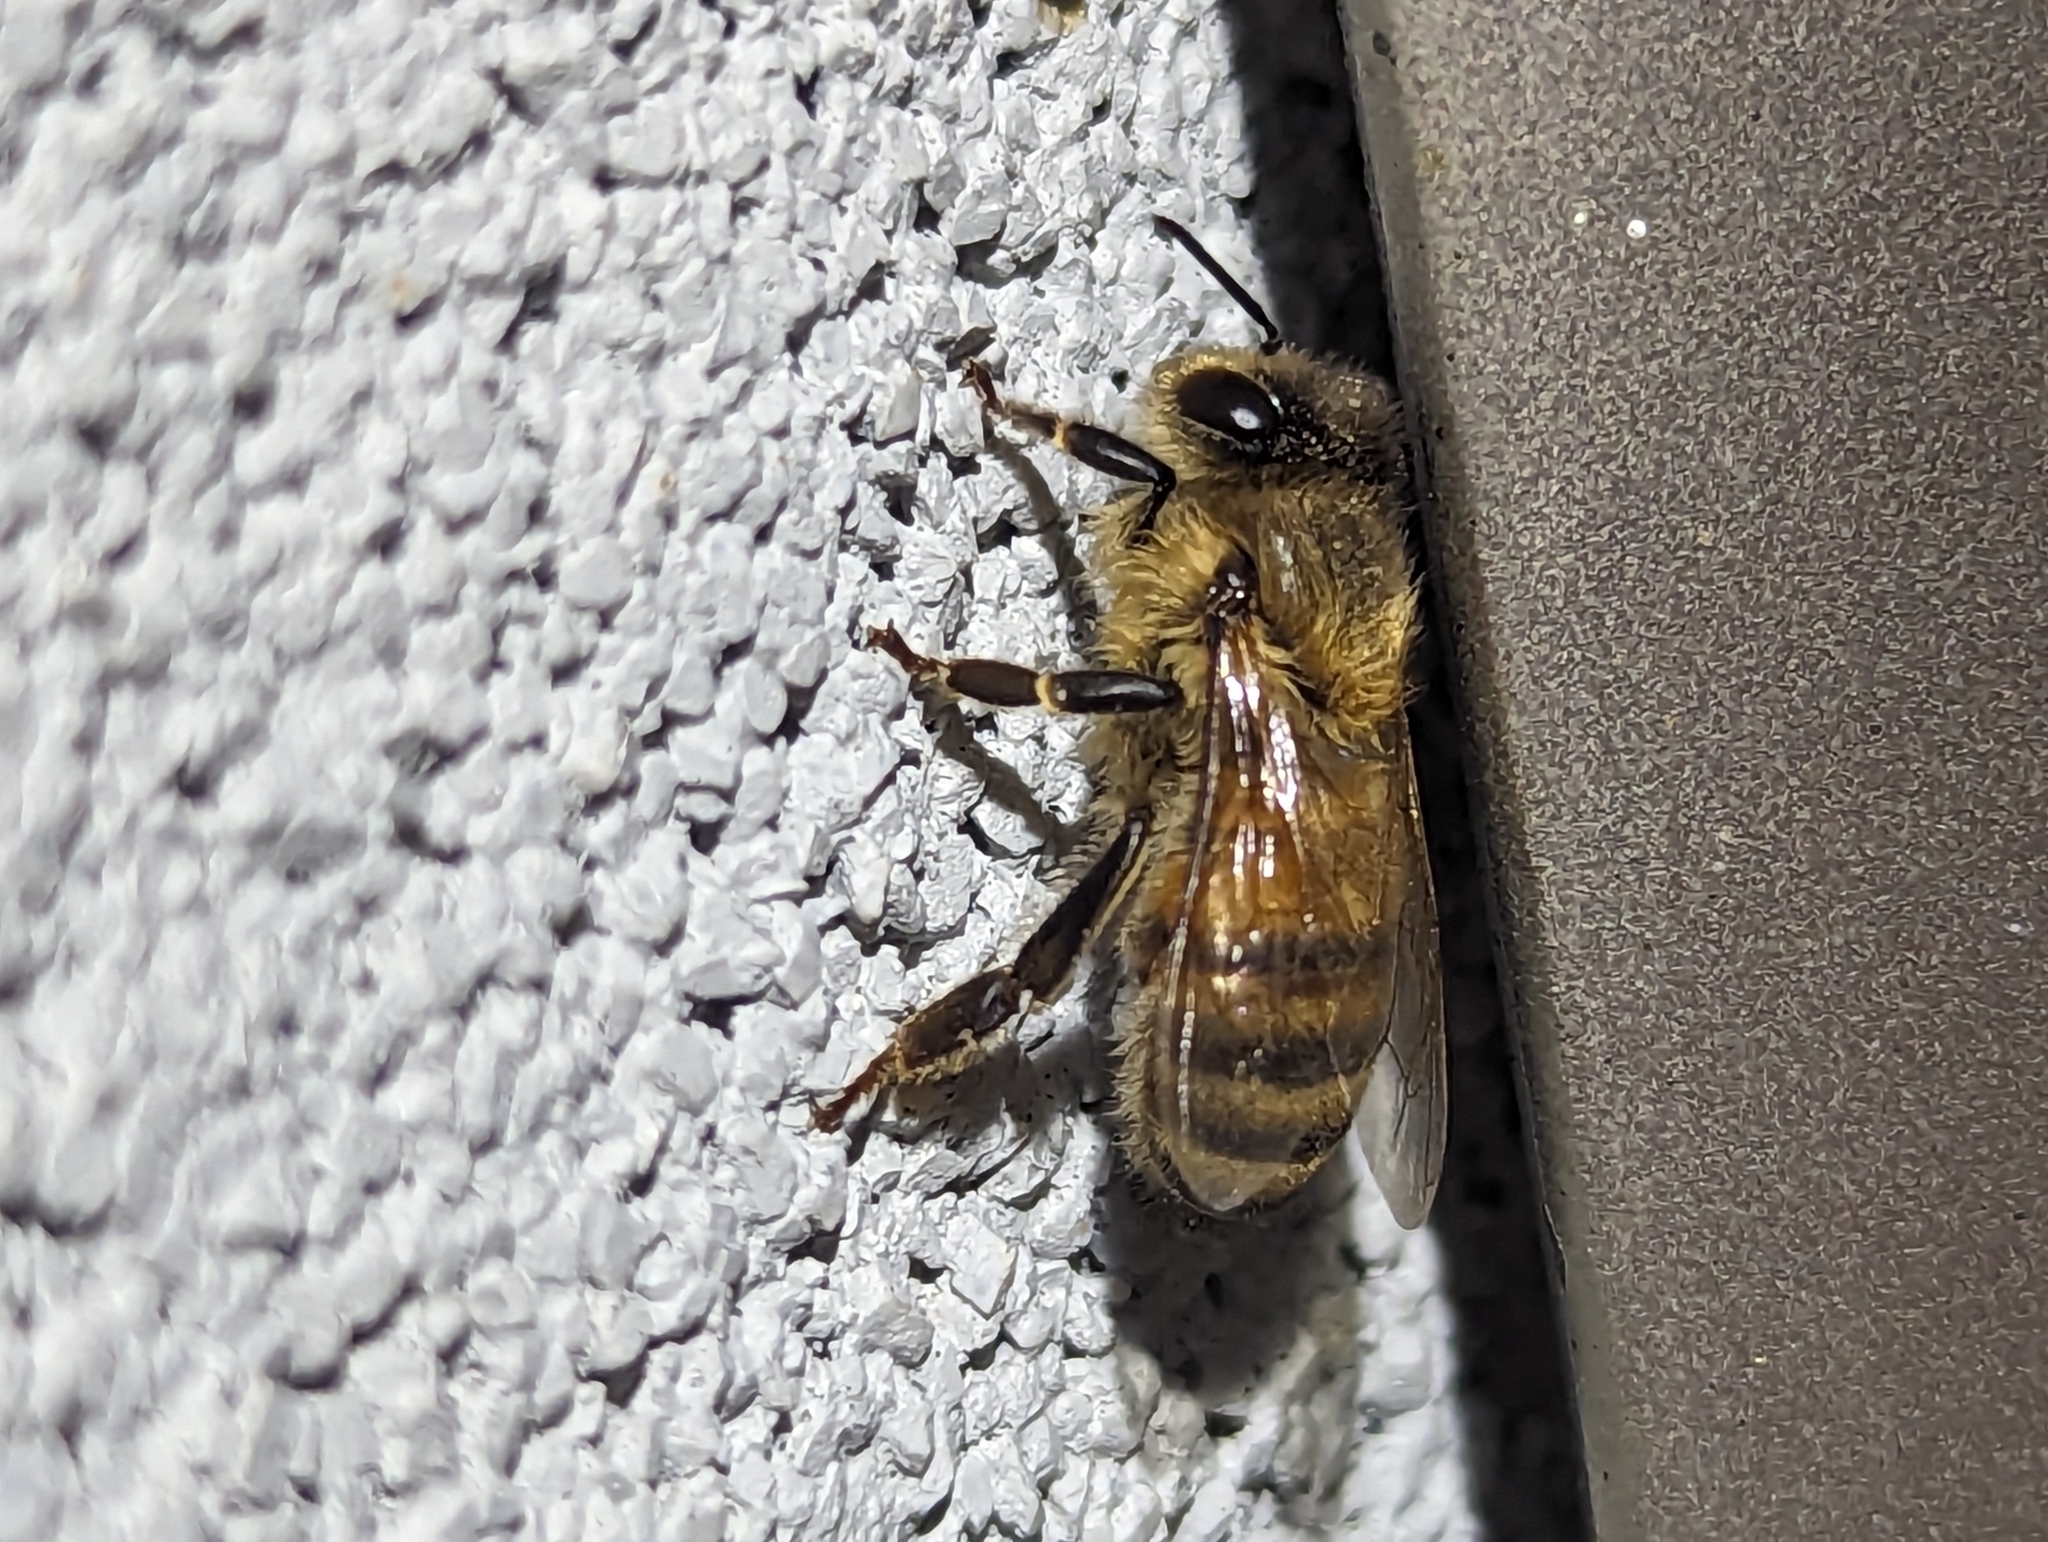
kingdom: Animalia
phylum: Arthropoda
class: Insecta
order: Hymenoptera
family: Apidae
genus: Apis
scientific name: Apis mellifera
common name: Honey bee
